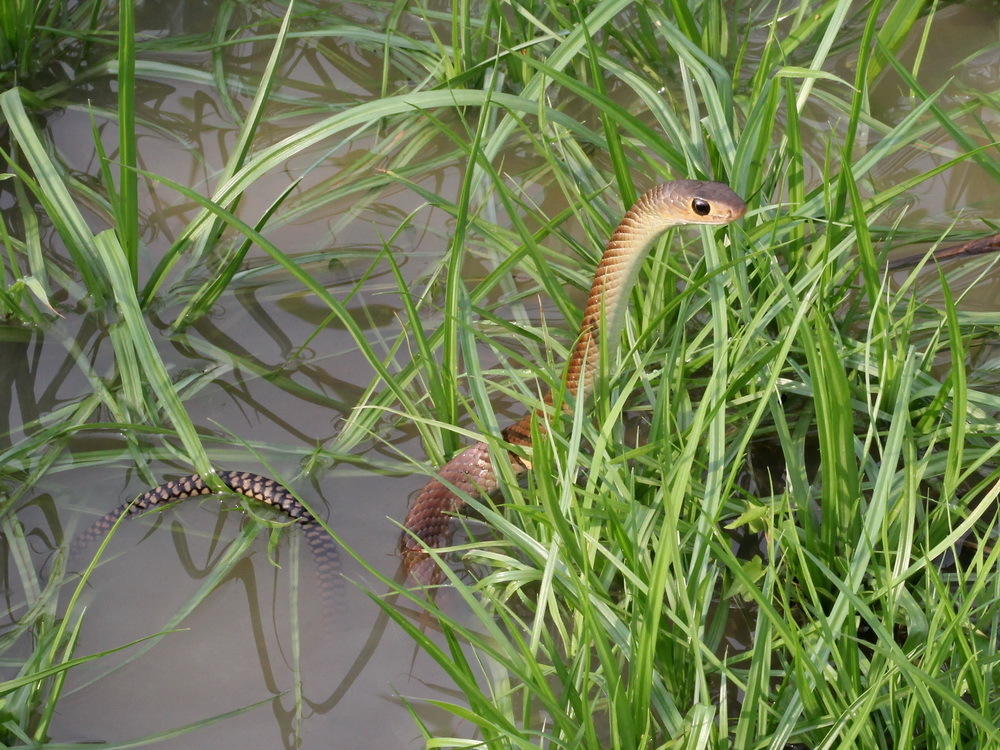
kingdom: Animalia
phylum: Chordata
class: Squamata
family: Colubridae
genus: Ptyas
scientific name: Ptyas korros
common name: Indo-chinese rat snake
